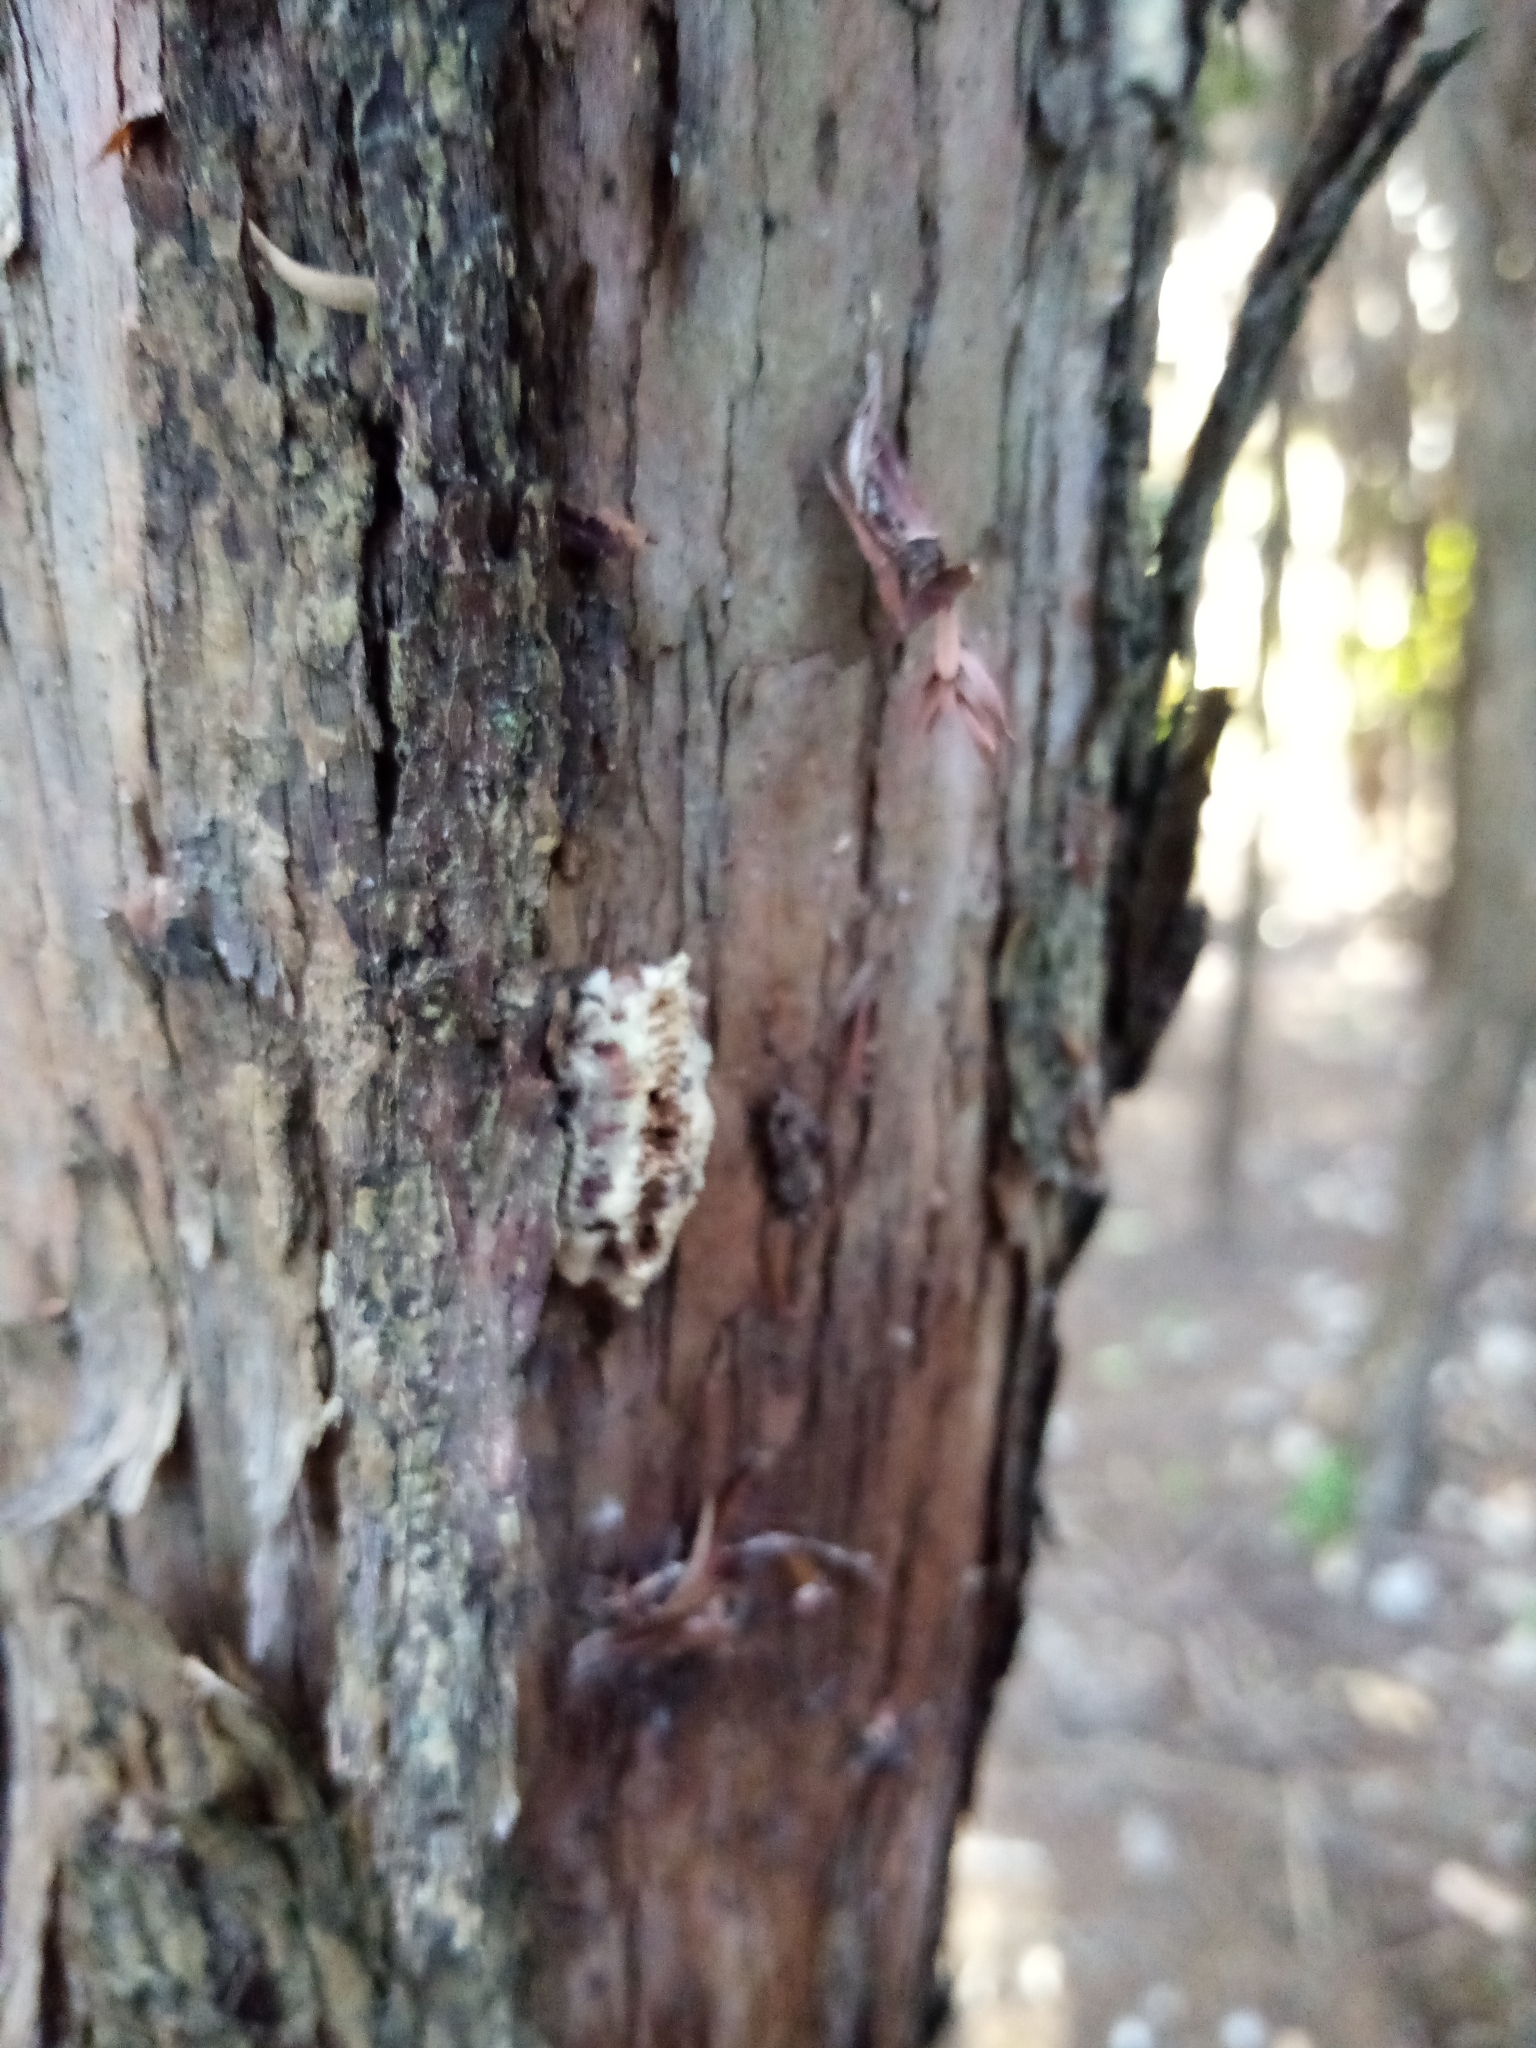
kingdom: Animalia
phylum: Arthropoda
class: Insecta
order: Mantodea
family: Miomantidae
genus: Miomantis
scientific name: Miomantis caffra
